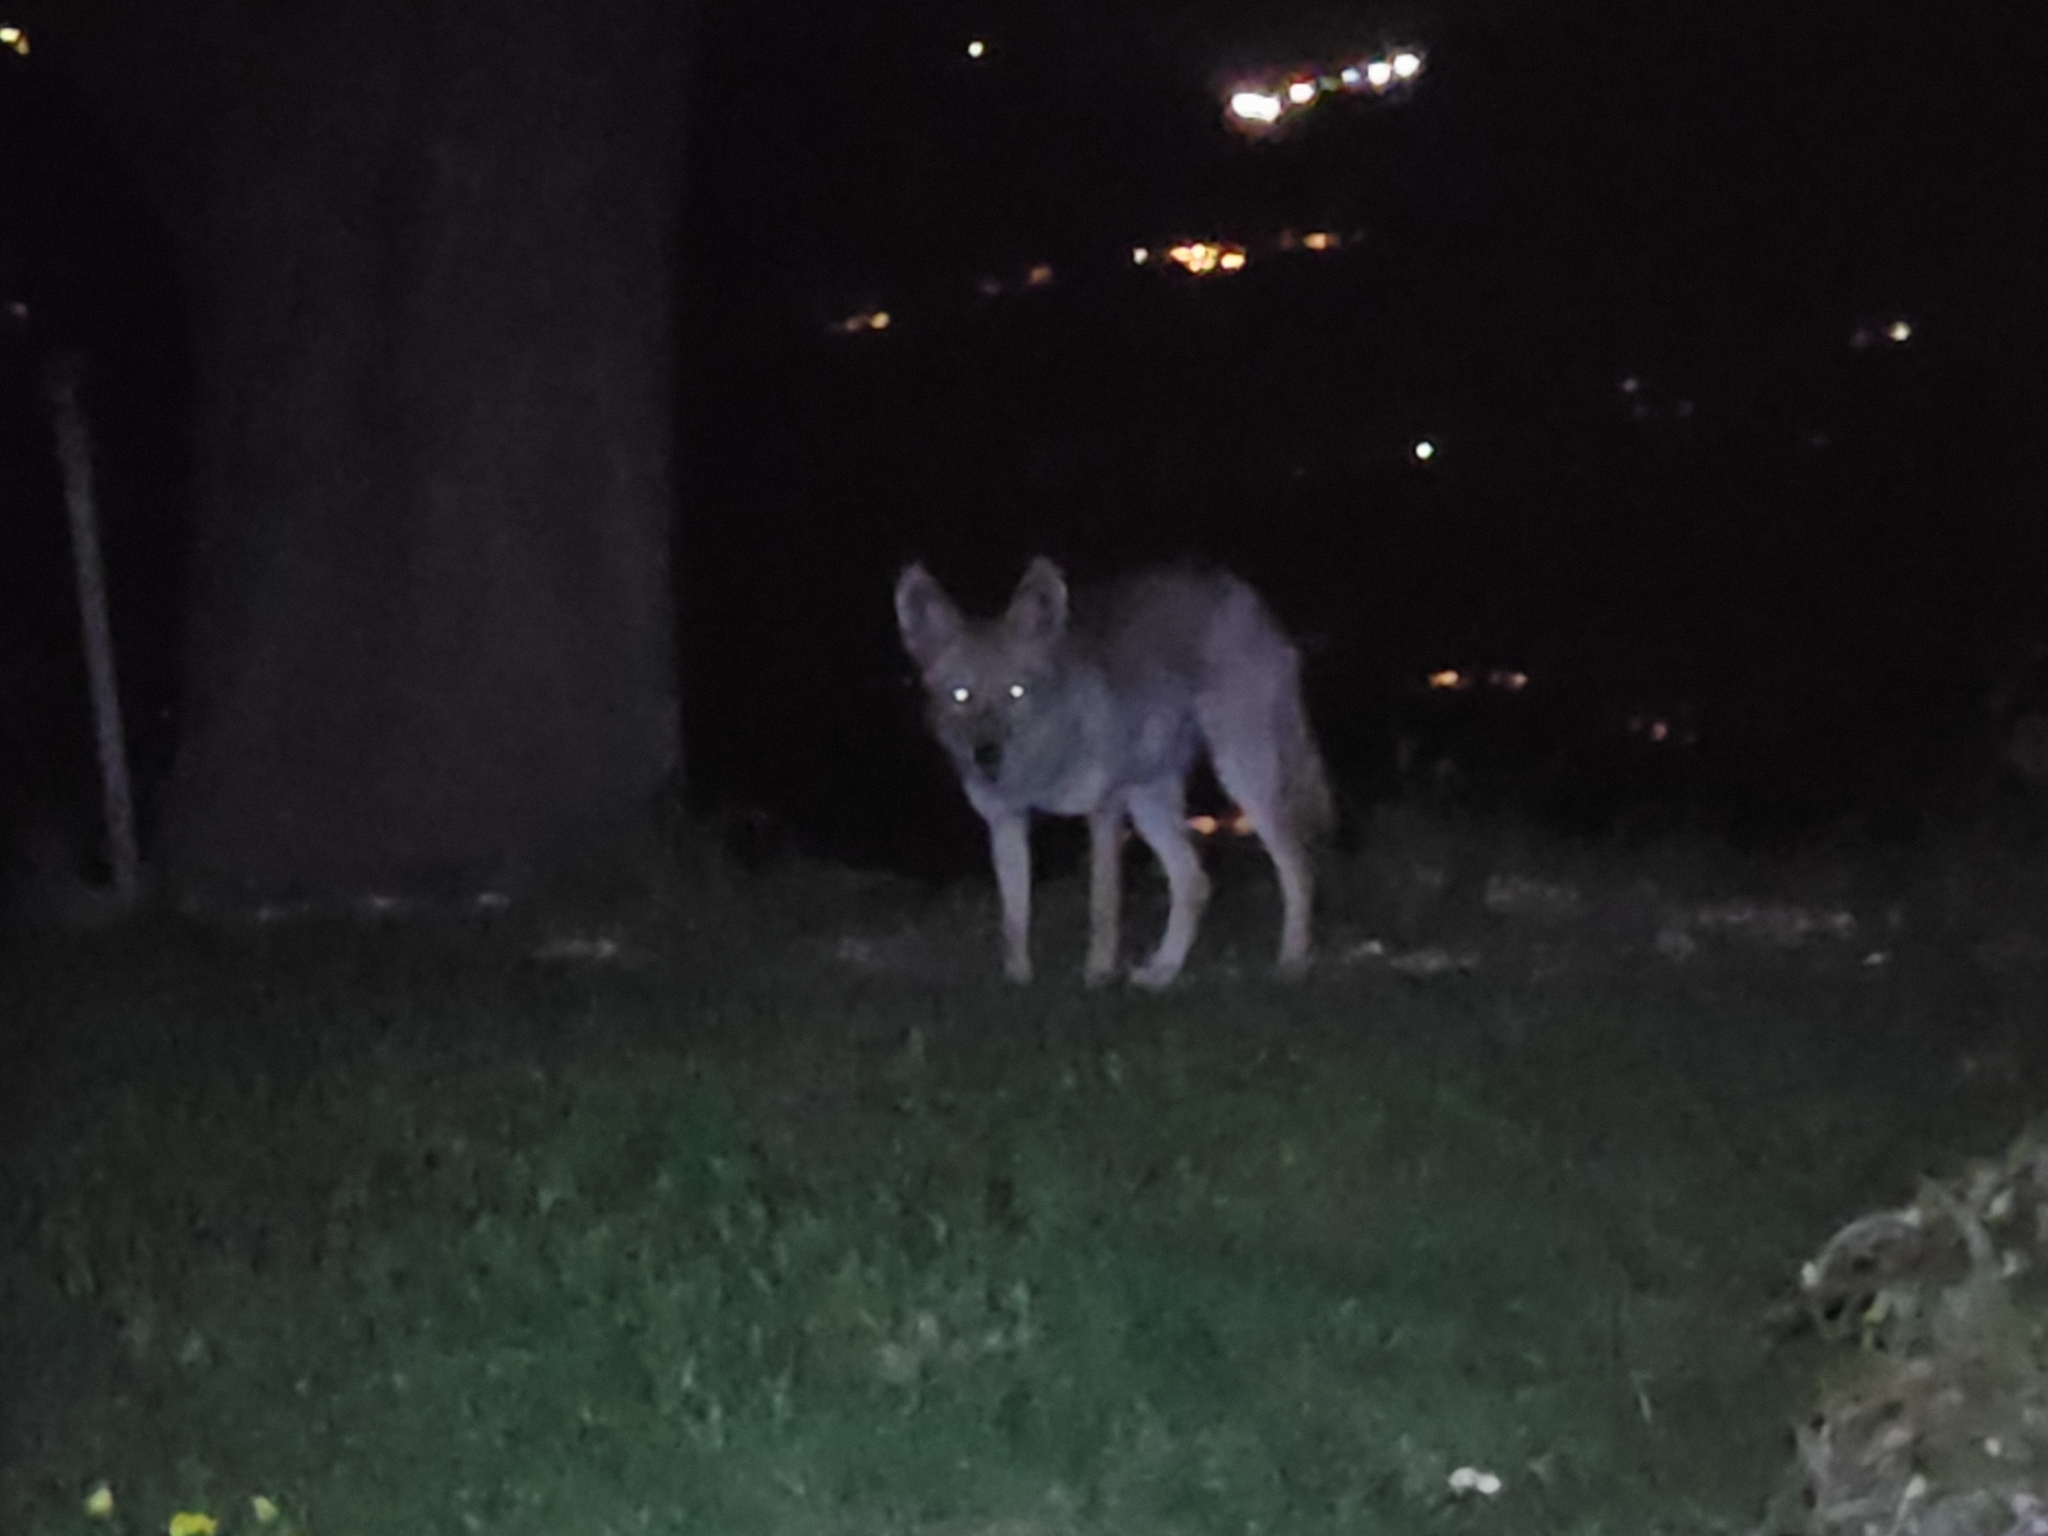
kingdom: Animalia
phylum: Chordata
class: Mammalia
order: Carnivora
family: Canidae
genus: Canis
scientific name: Canis latrans
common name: Coyote
